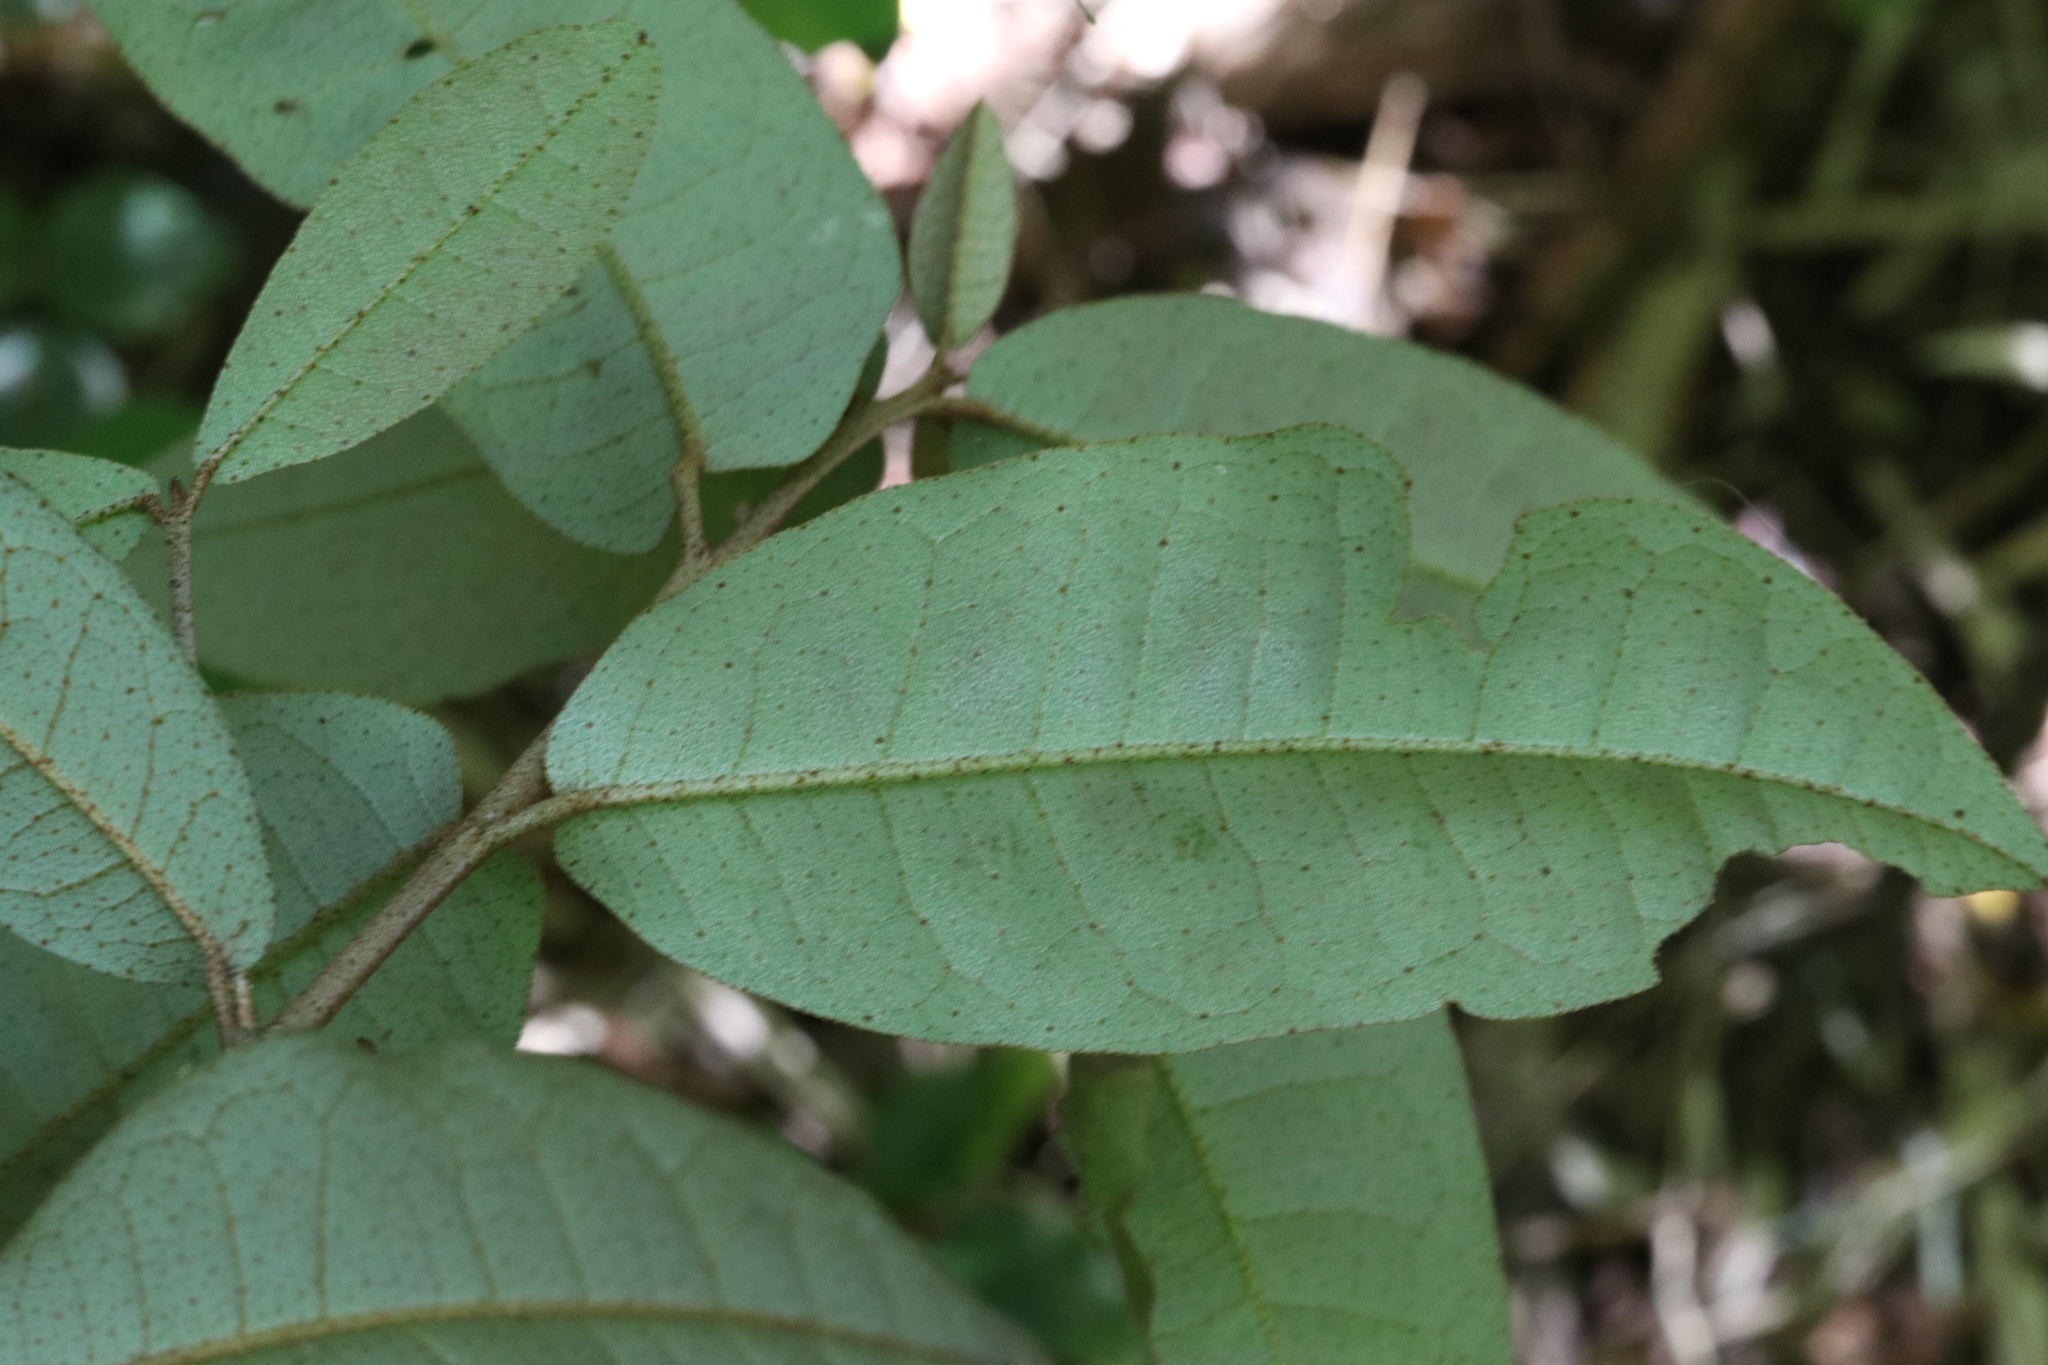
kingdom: Plantae
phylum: Tracheophyta
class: Magnoliopsida
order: Berberidopsidales
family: Aextoxicaceae
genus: Aextoxicon
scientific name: Aextoxicon punctatum
